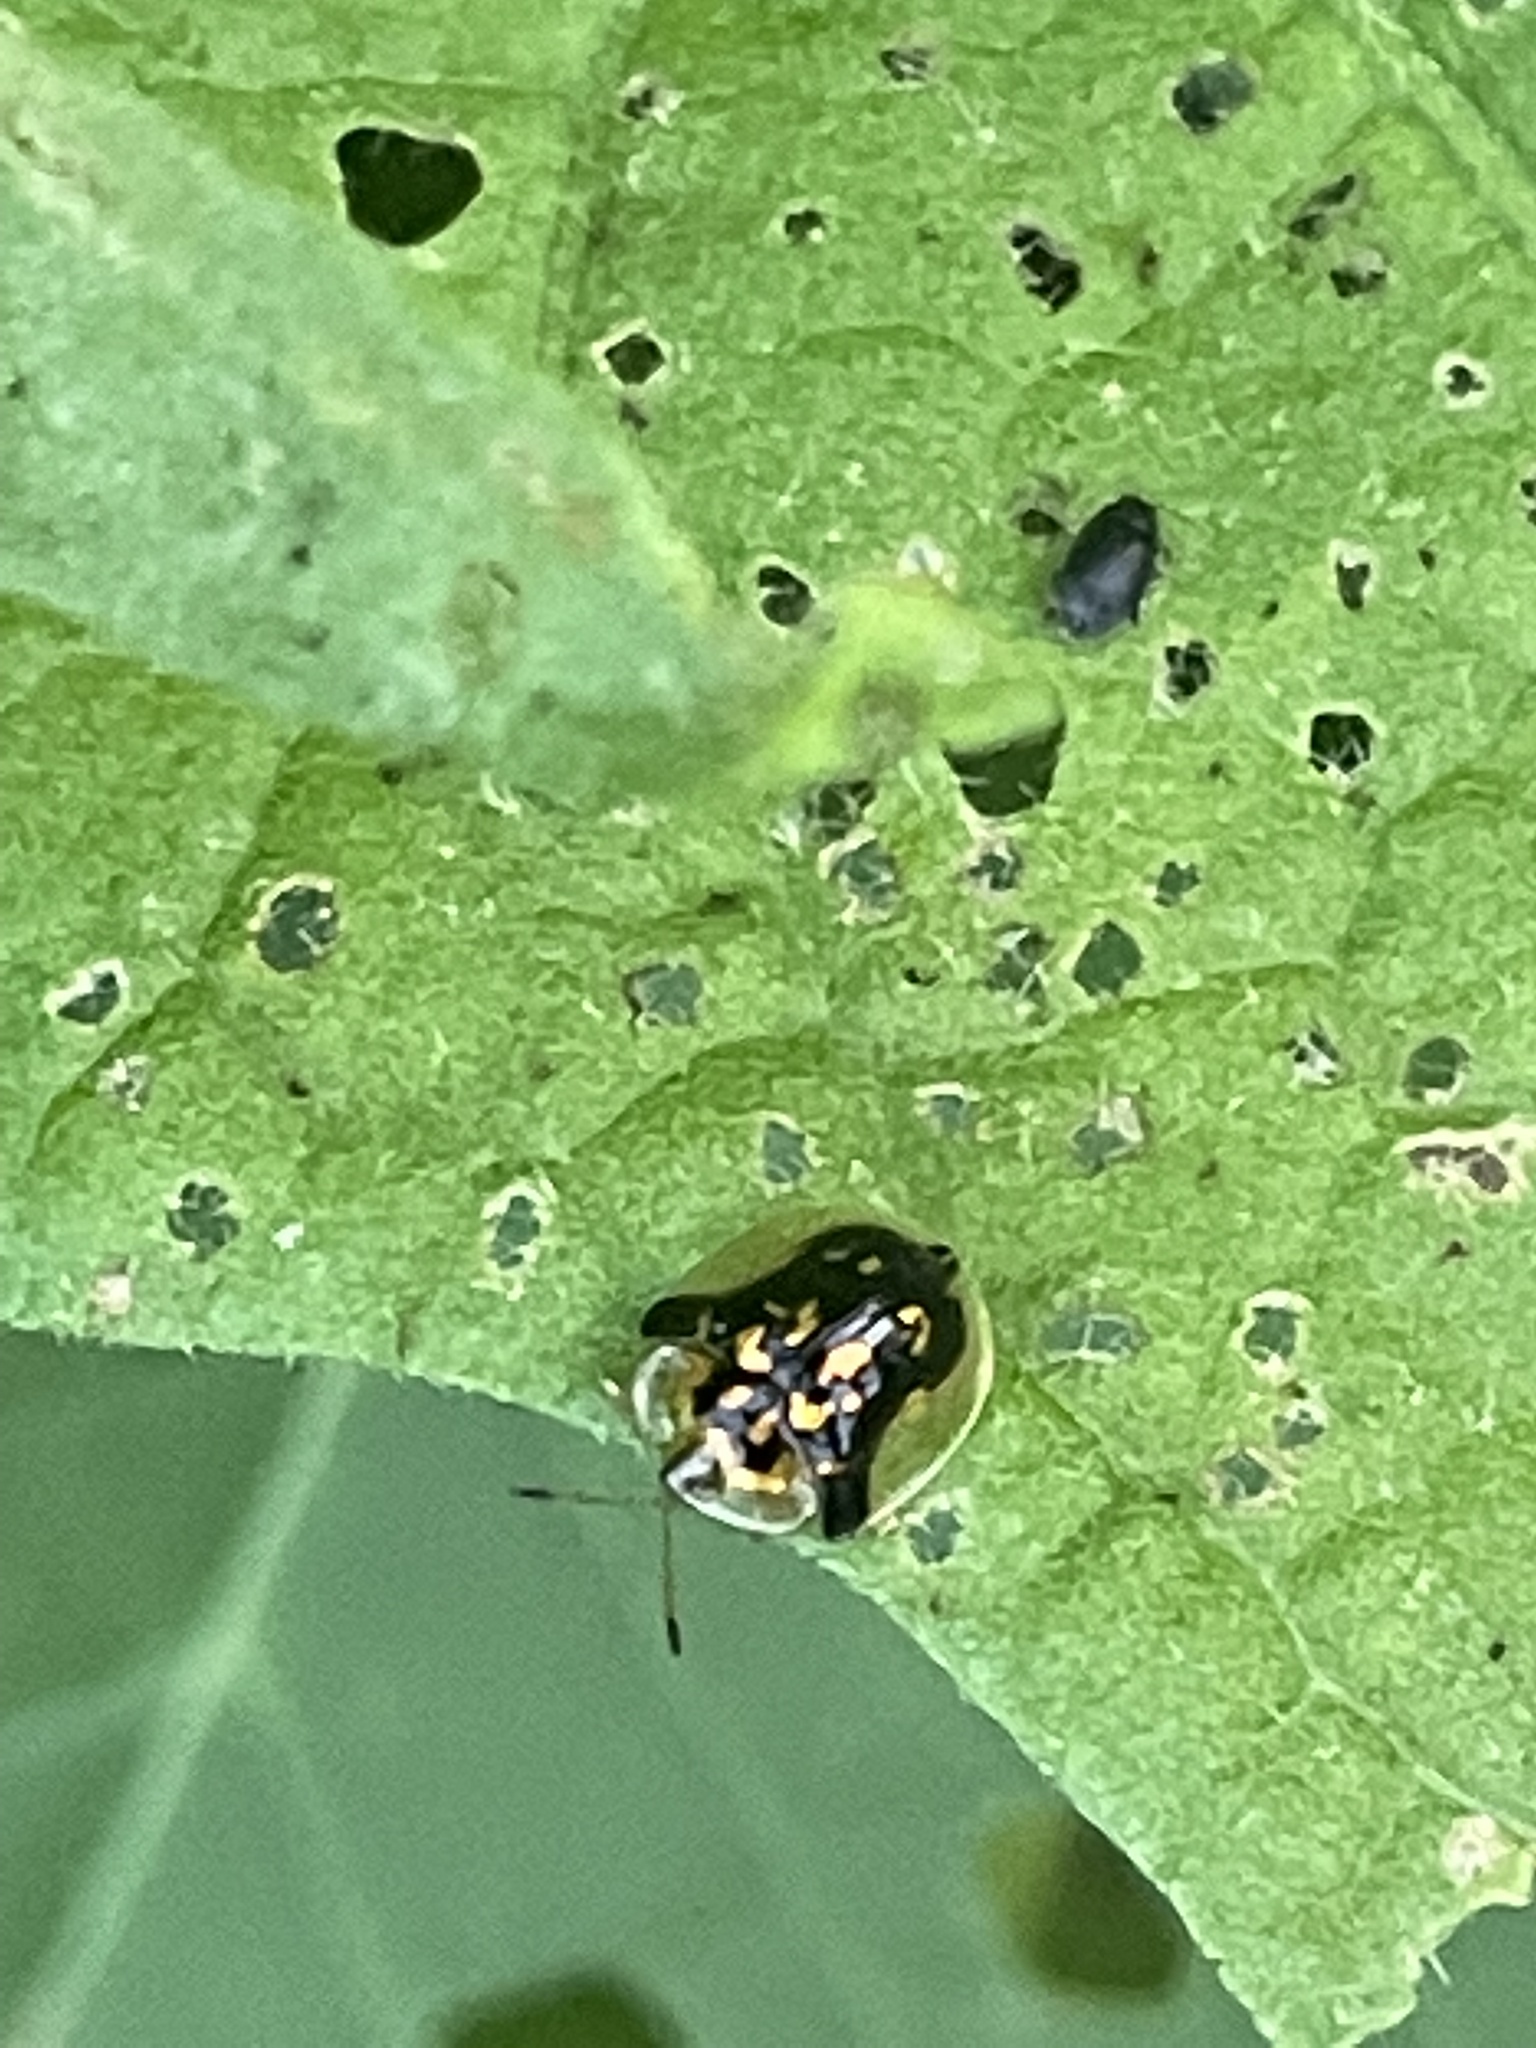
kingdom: Animalia
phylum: Arthropoda
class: Insecta
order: Coleoptera
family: Chrysomelidae
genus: Deloyala
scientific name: Deloyala guttata
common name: Mottled tortoise beetle
